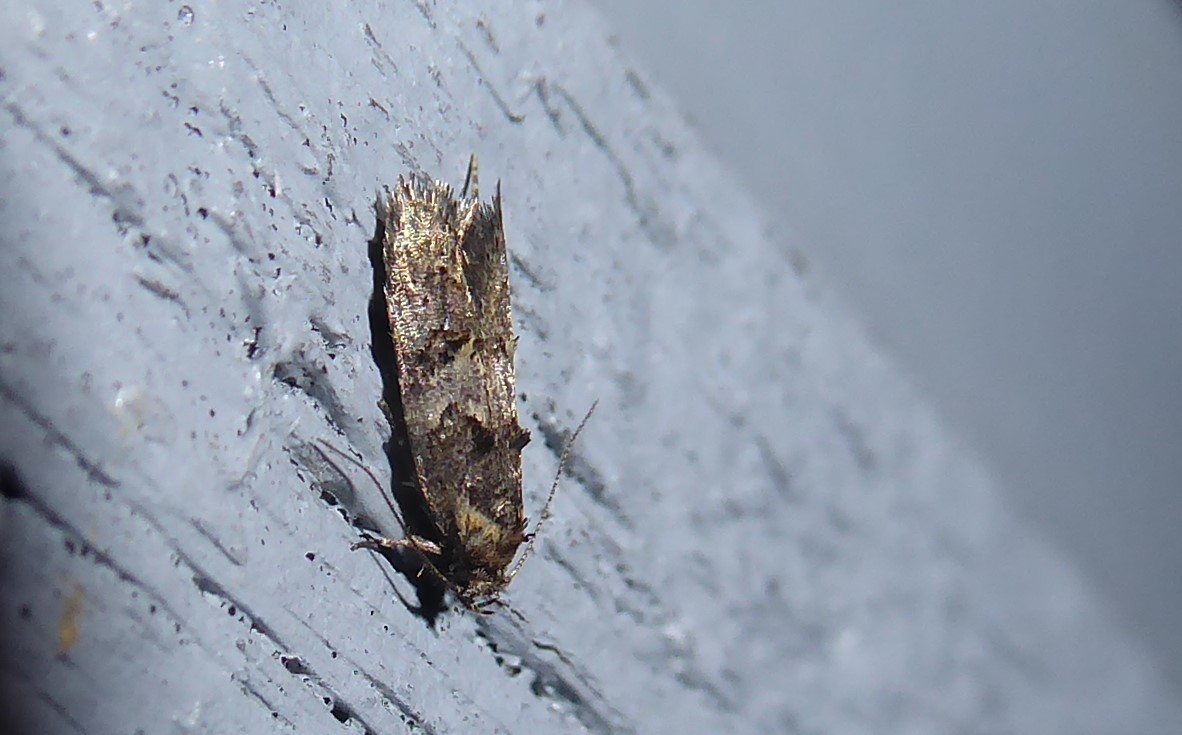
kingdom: Animalia
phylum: Arthropoda
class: Insecta
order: Lepidoptera
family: Oecophoridae
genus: Trachypepla
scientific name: Trachypepla anastrella
